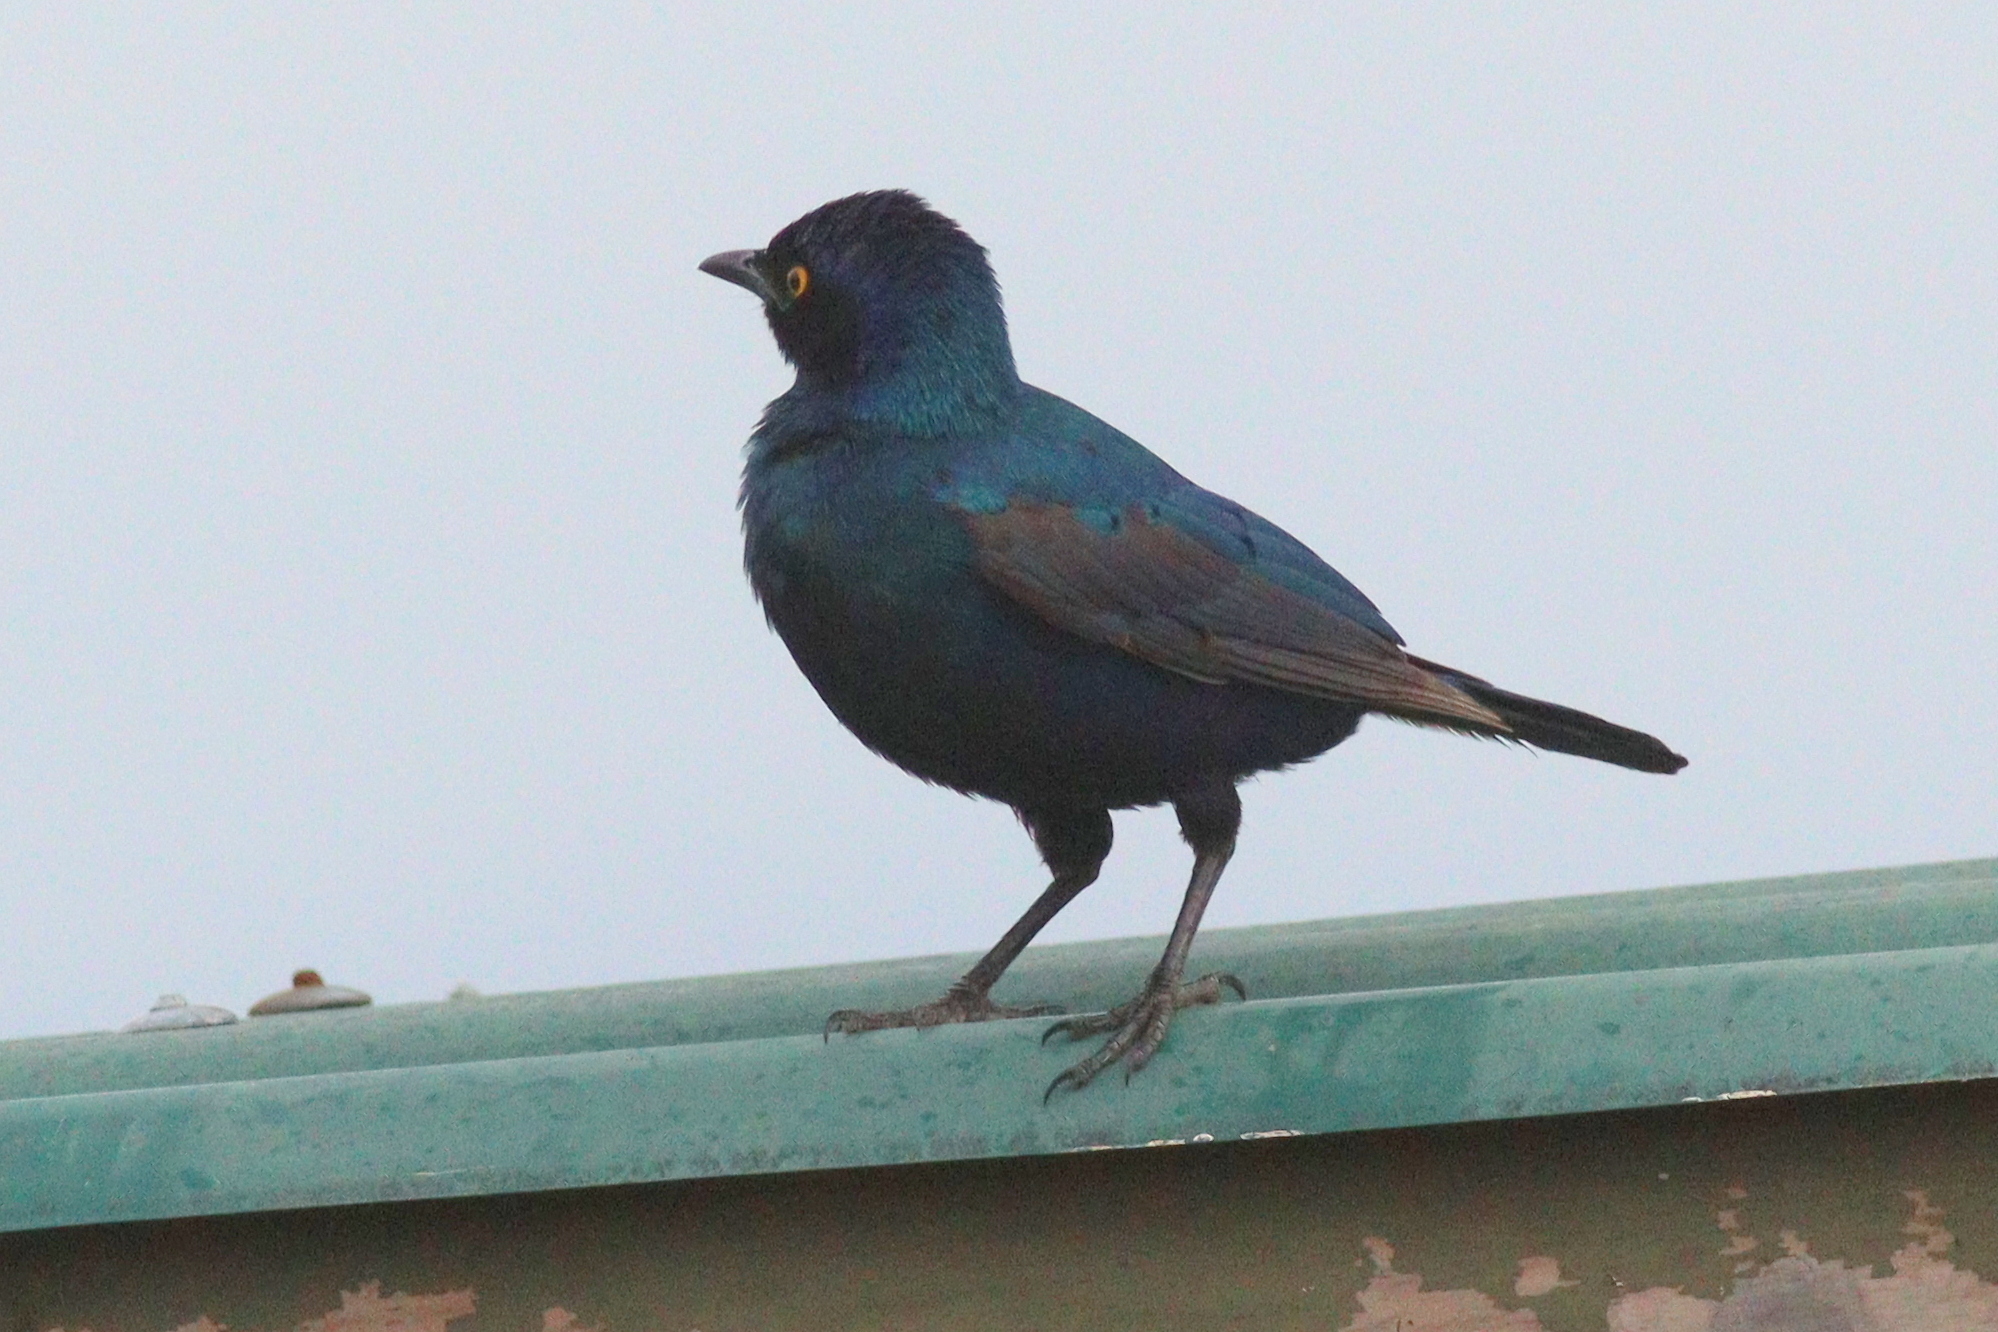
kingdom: Animalia
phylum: Chordata
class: Aves
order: Passeriformes
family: Sturnidae
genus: Lamprotornis
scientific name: Lamprotornis chalybaeus
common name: Greater blue-eared starling
